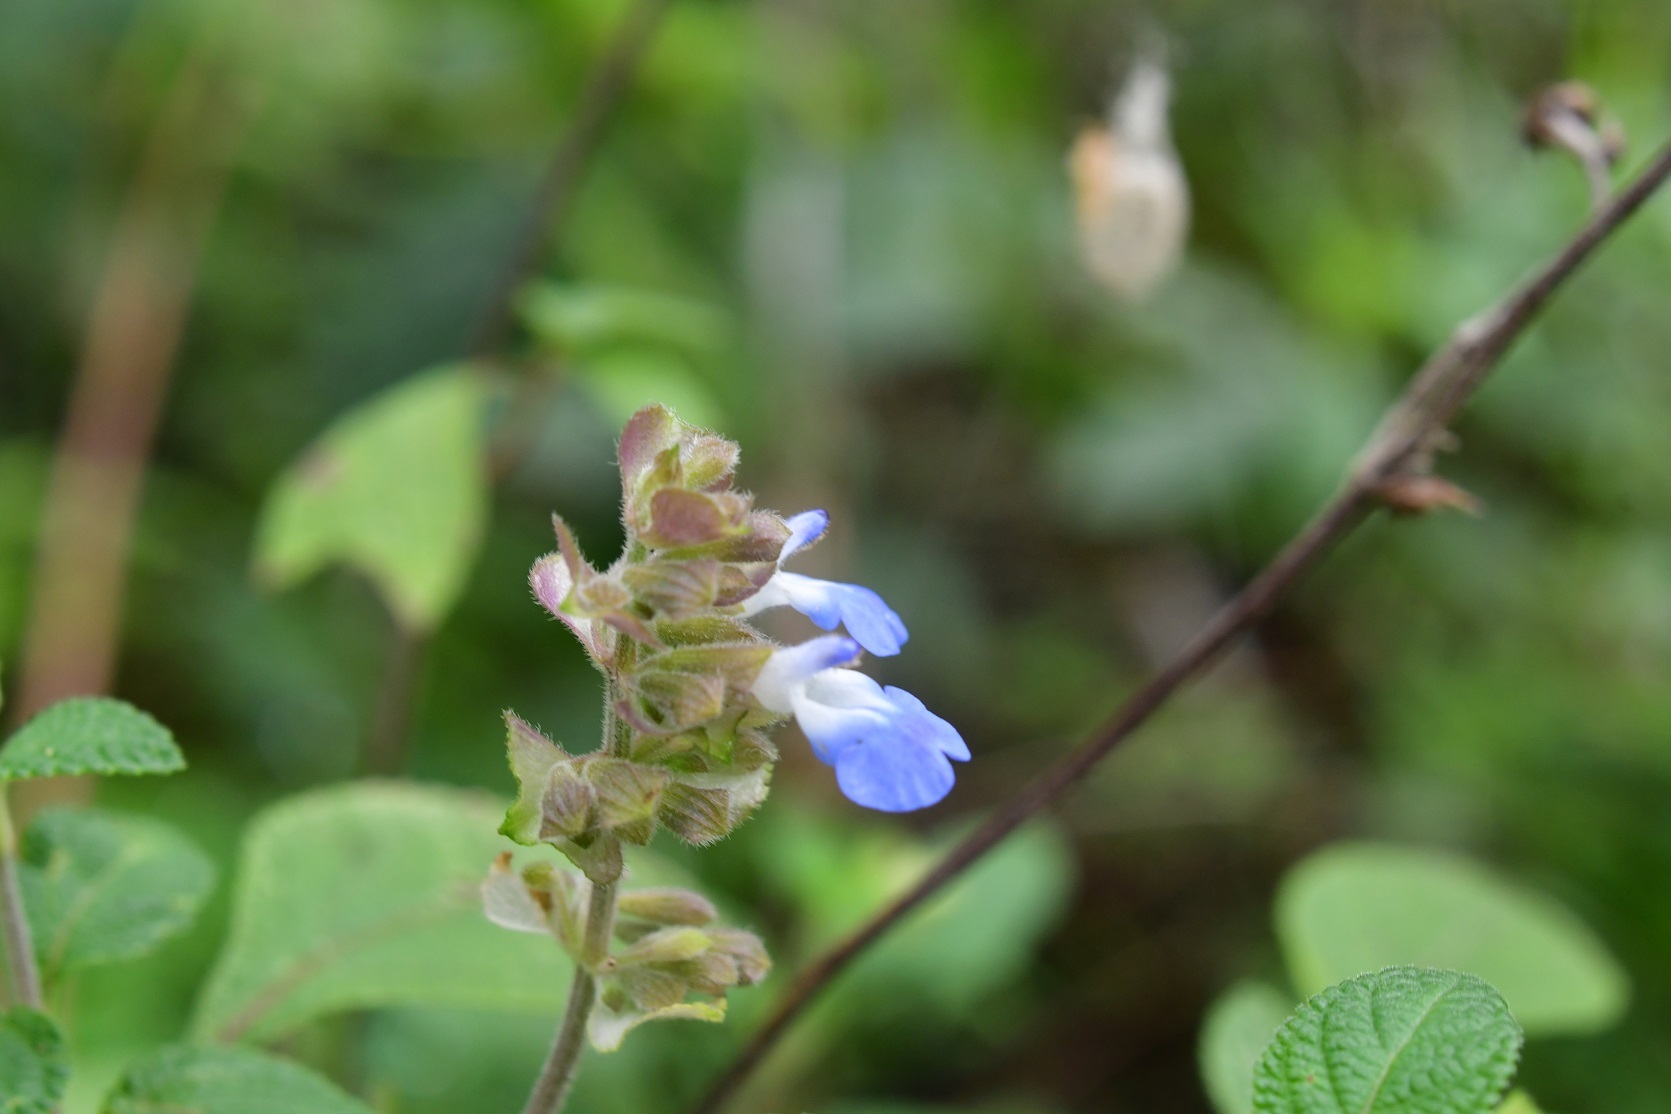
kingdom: Plantae
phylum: Tracheophyta
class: Magnoliopsida
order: Lamiales
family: Lamiaceae
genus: Salvia
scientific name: Salvia mocinoi
